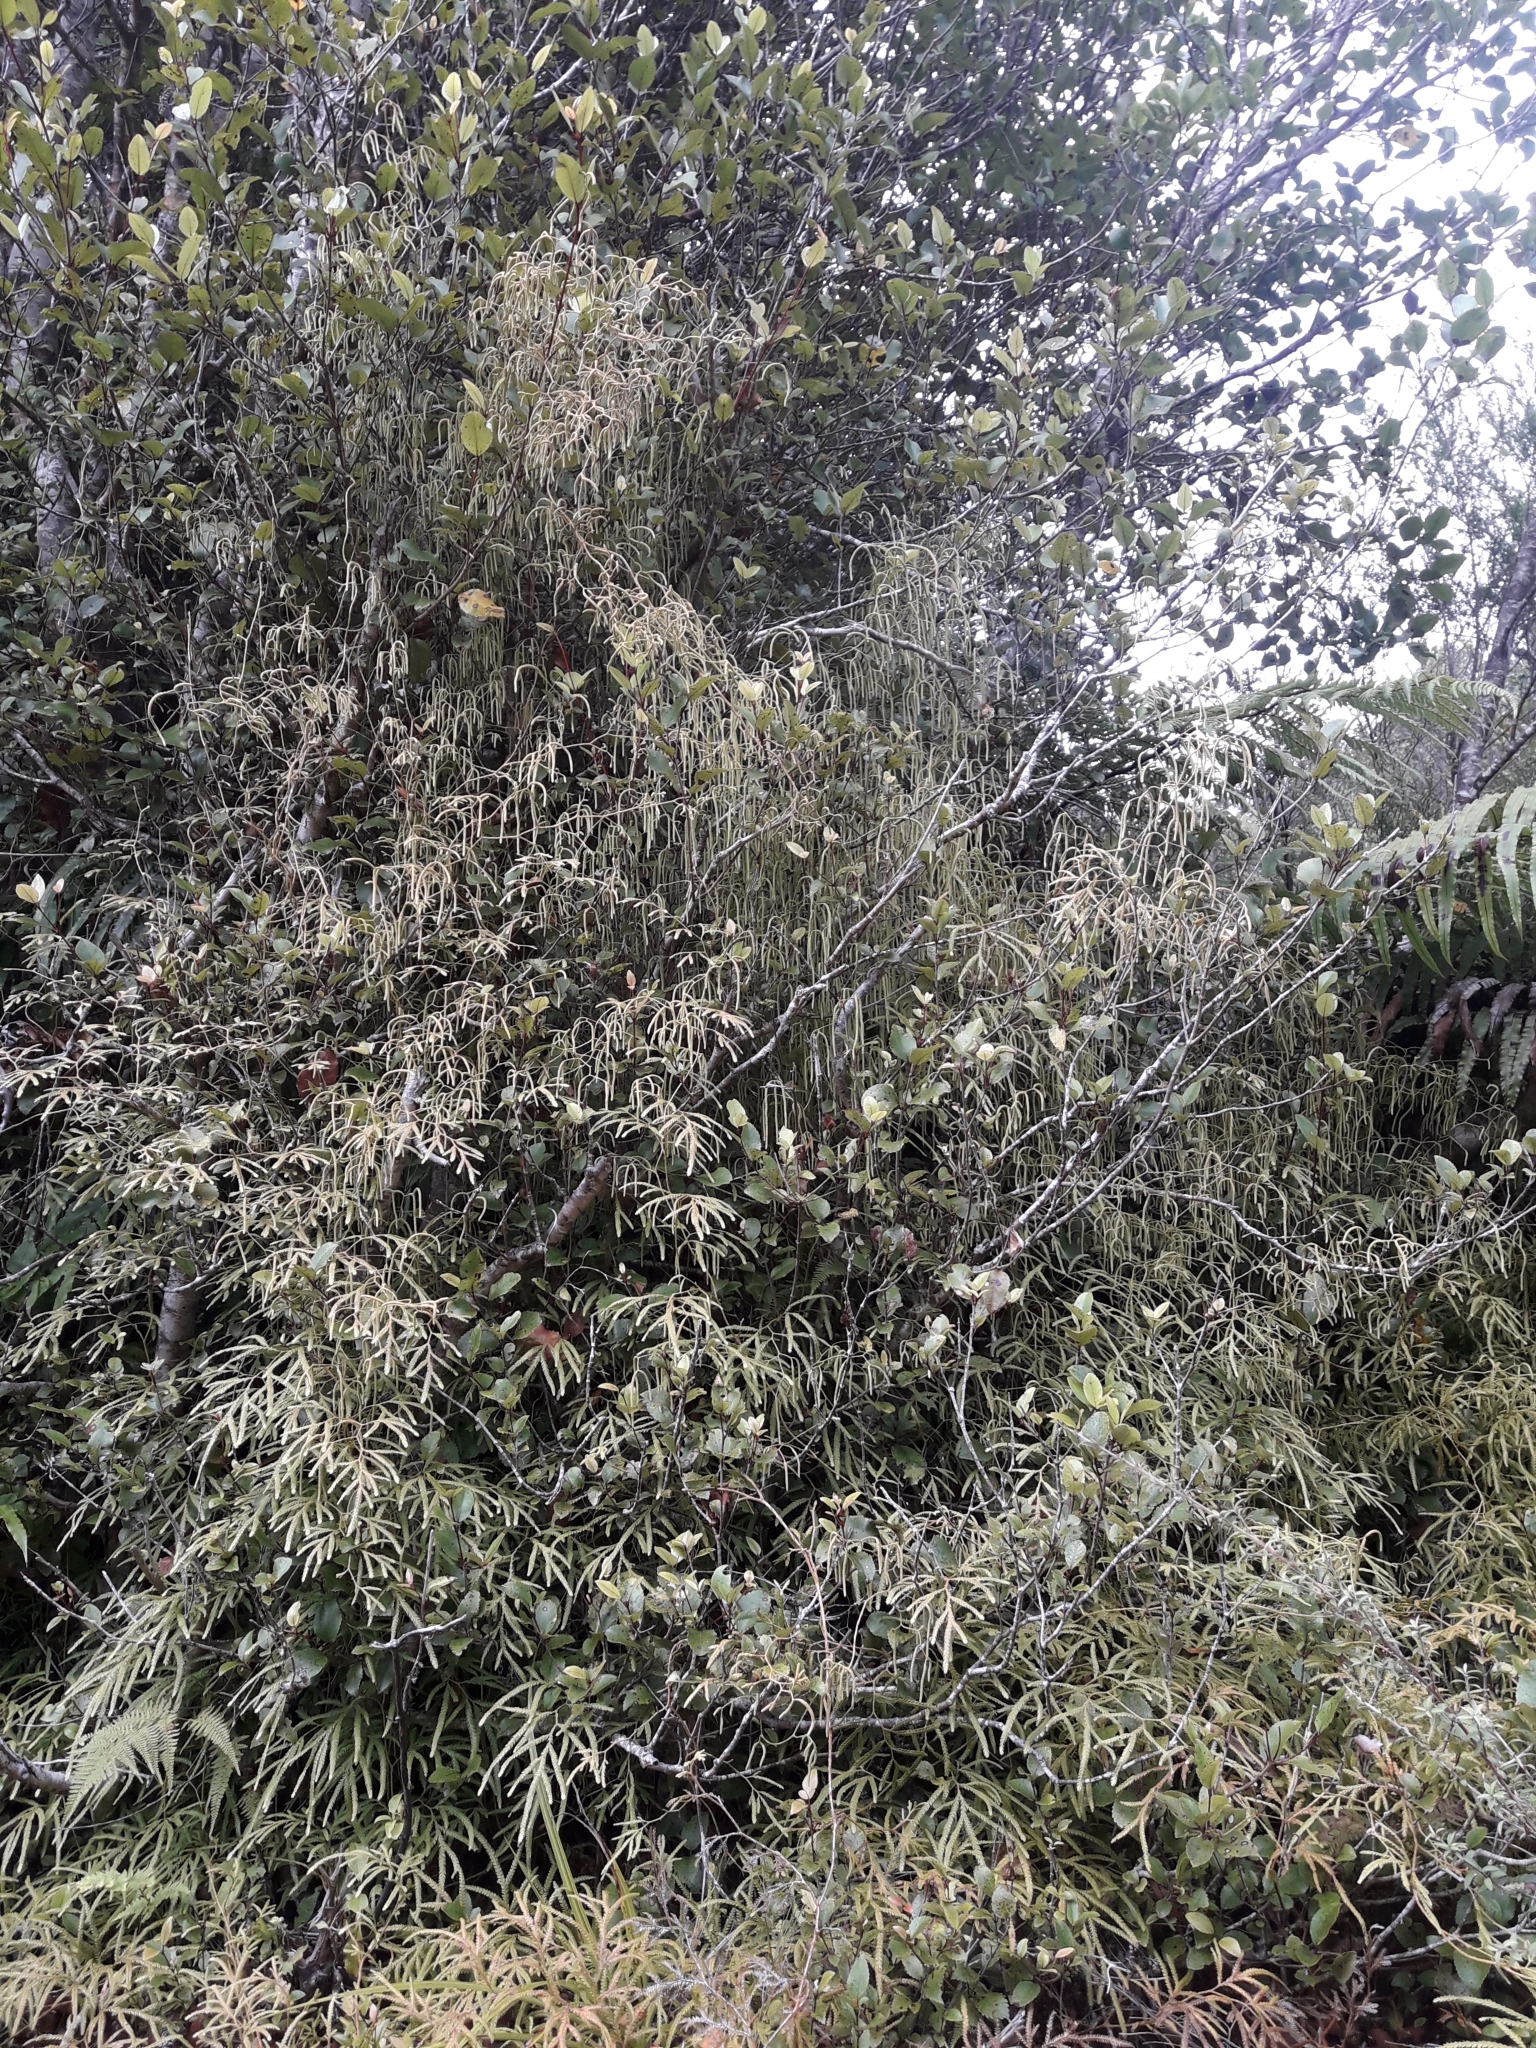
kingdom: Plantae
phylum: Tracheophyta
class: Lycopodiopsida
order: Lycopodiales
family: Lycopodiaceae
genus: Lycopodium
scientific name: Lycopodium volubile
